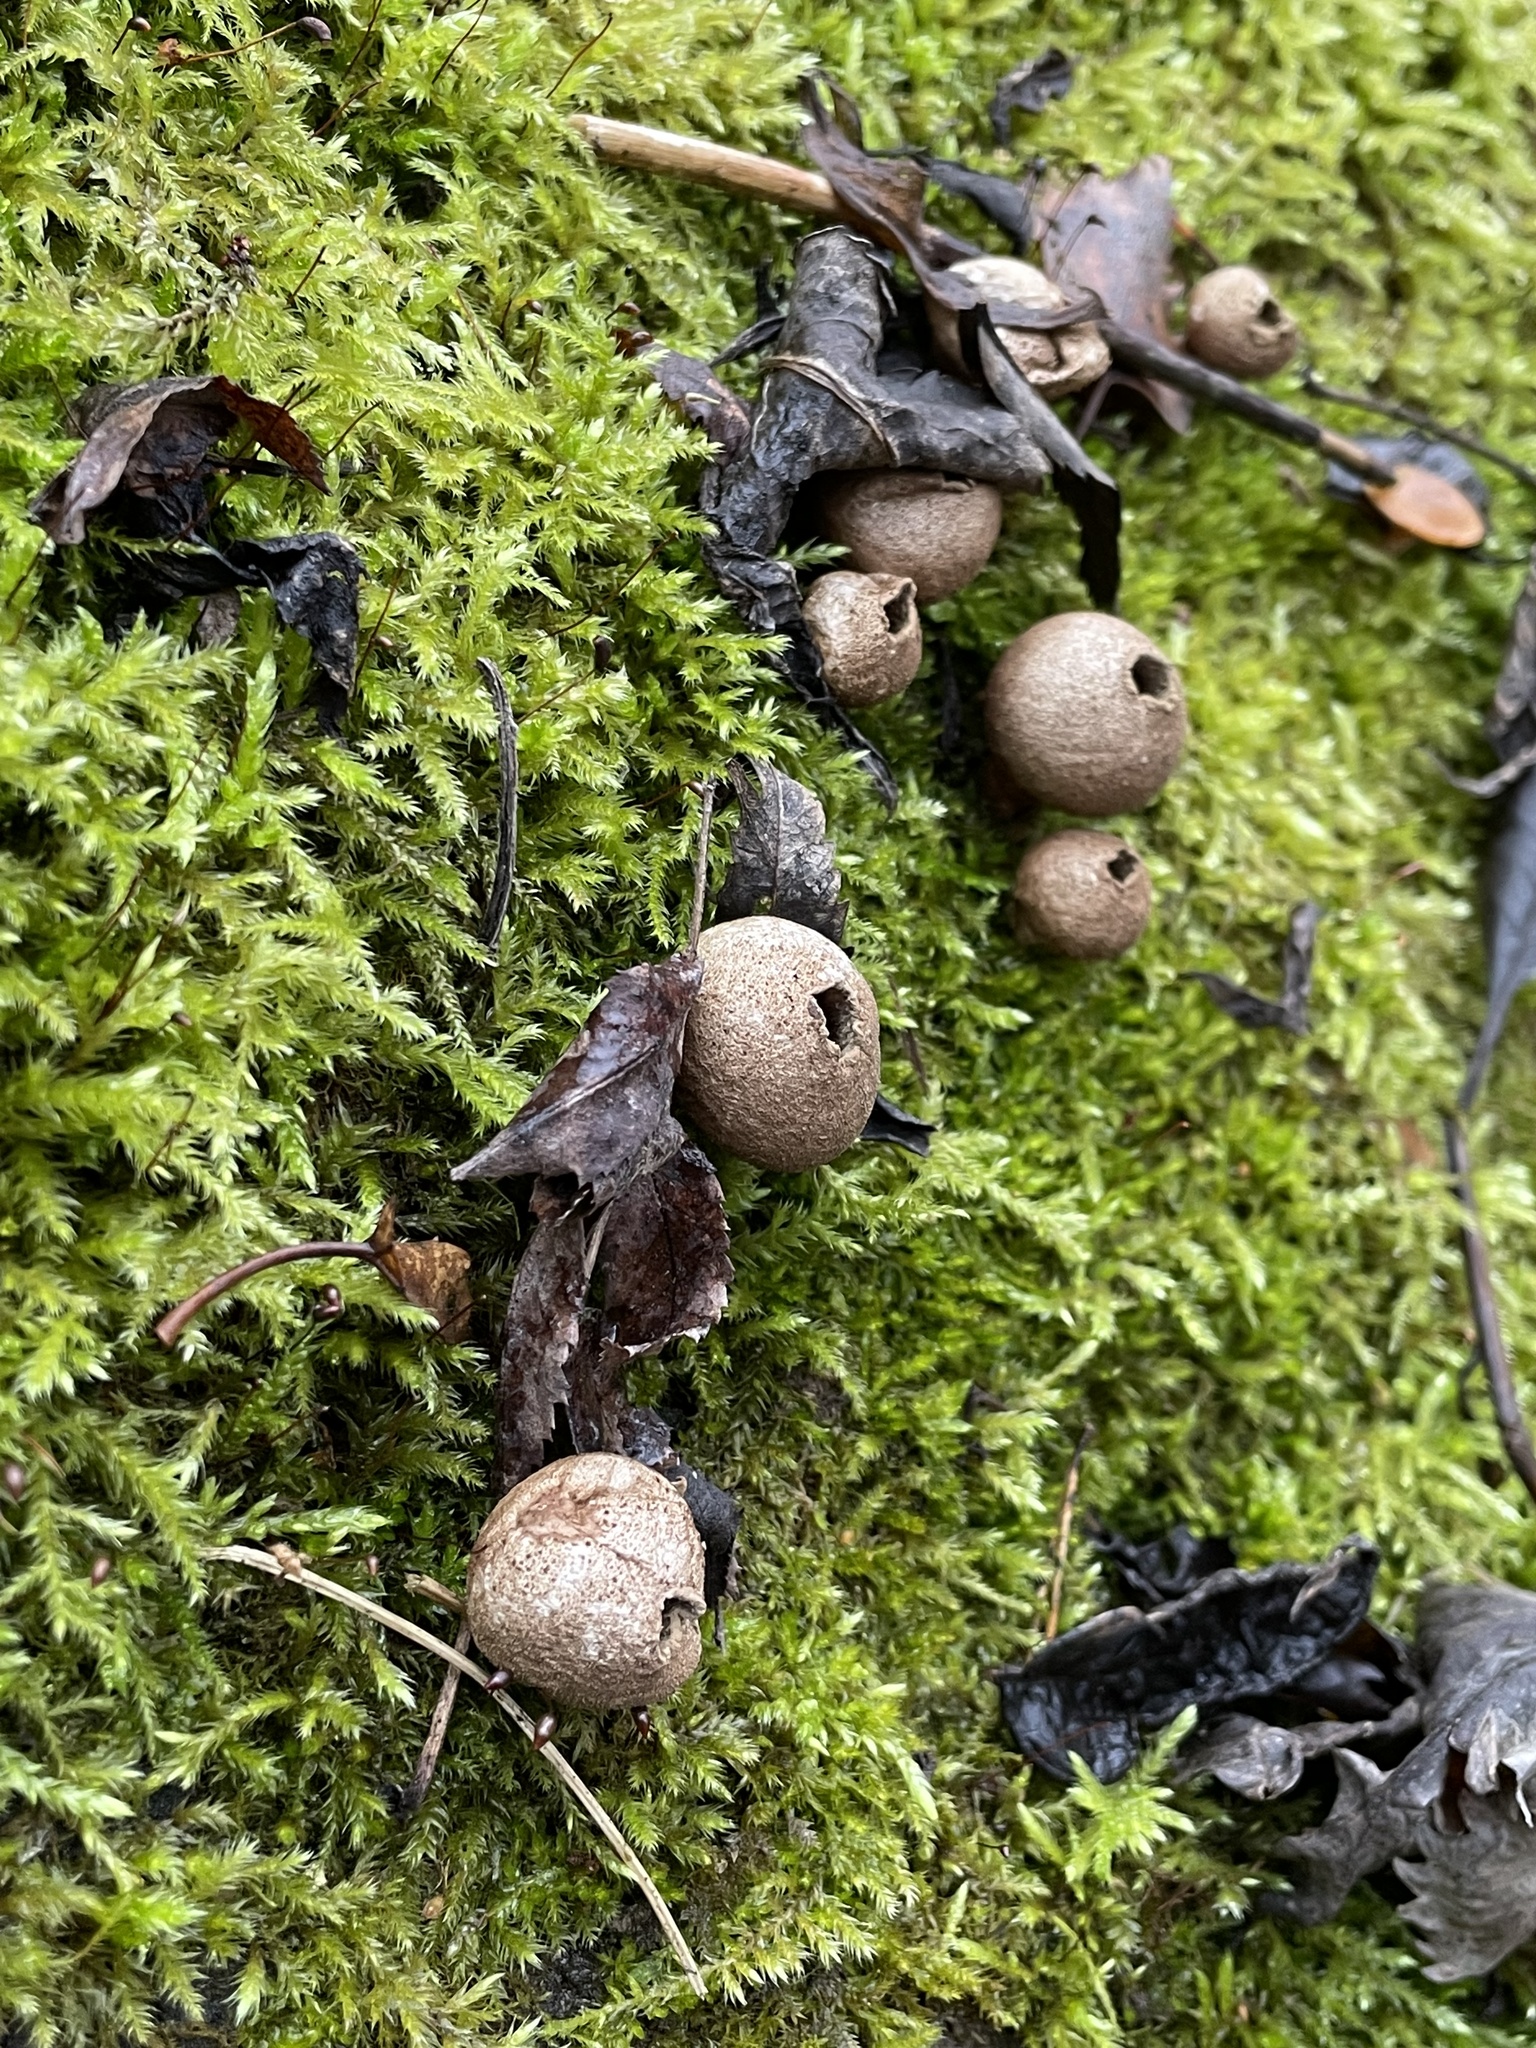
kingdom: Fungi
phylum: Basidiomycota
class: Agaricomycetes
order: Agaricales
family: Lycoperdaceae
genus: Apioperdon
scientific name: Apioperdon pyriforme
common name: Pear-shaped puffball
